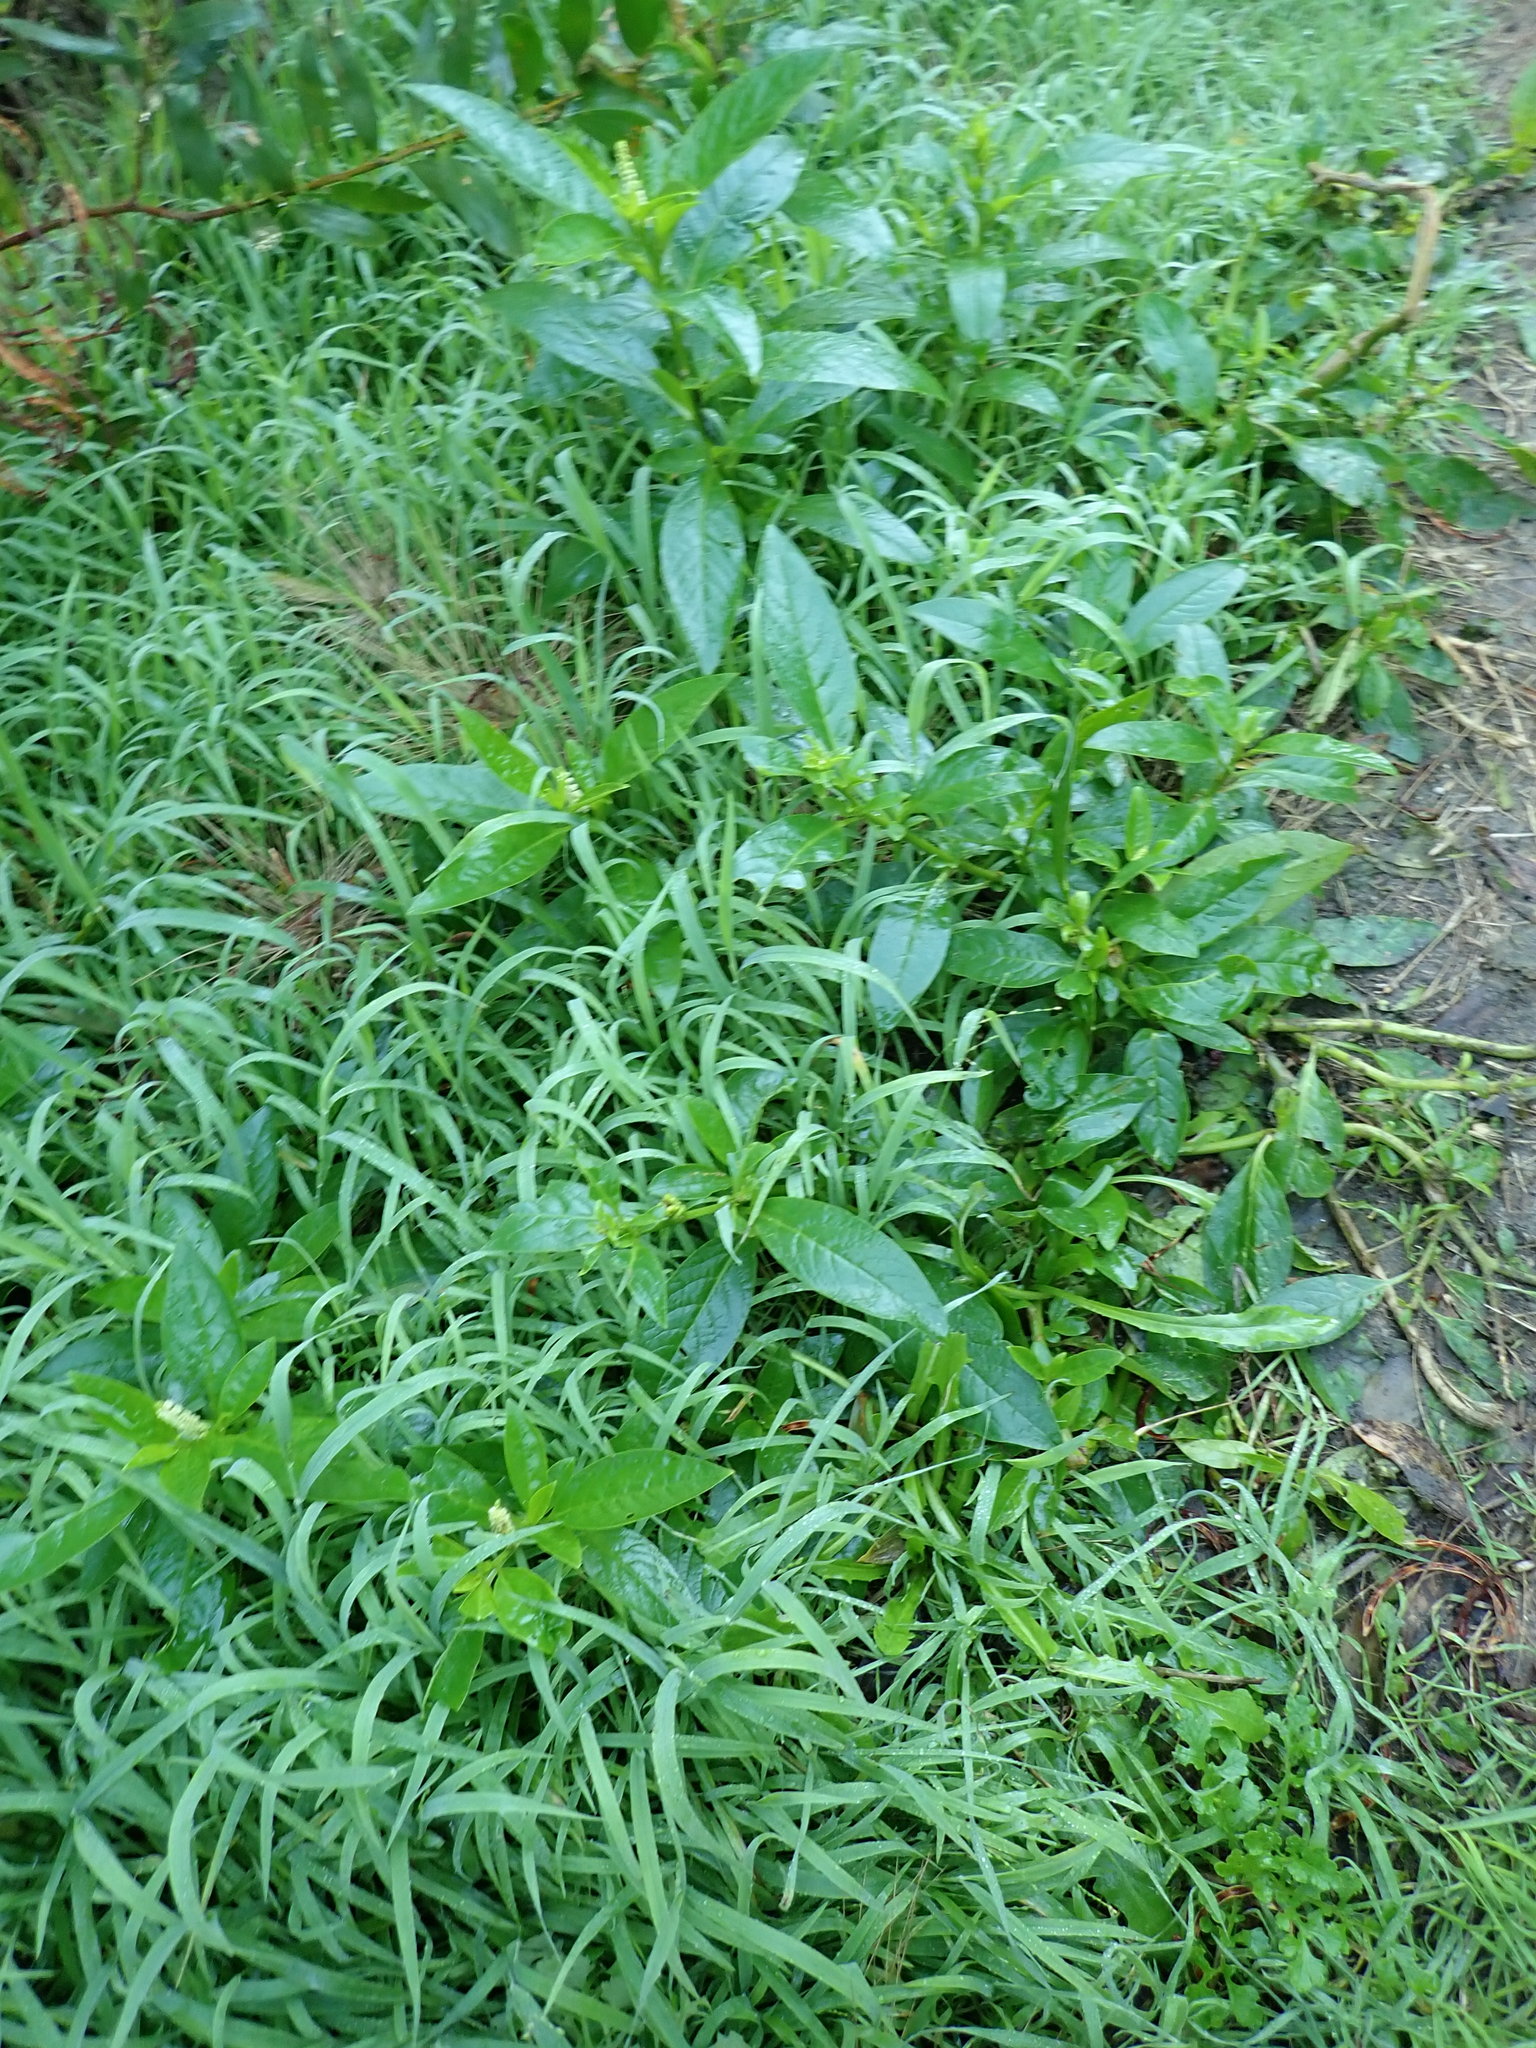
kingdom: Plantae
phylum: Tracheophyta
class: Magnoliopsida
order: Caryophyllales
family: Phytolaccaceae
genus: Phytolacca
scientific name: Phytolacca icosandra
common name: Button pokeweed
